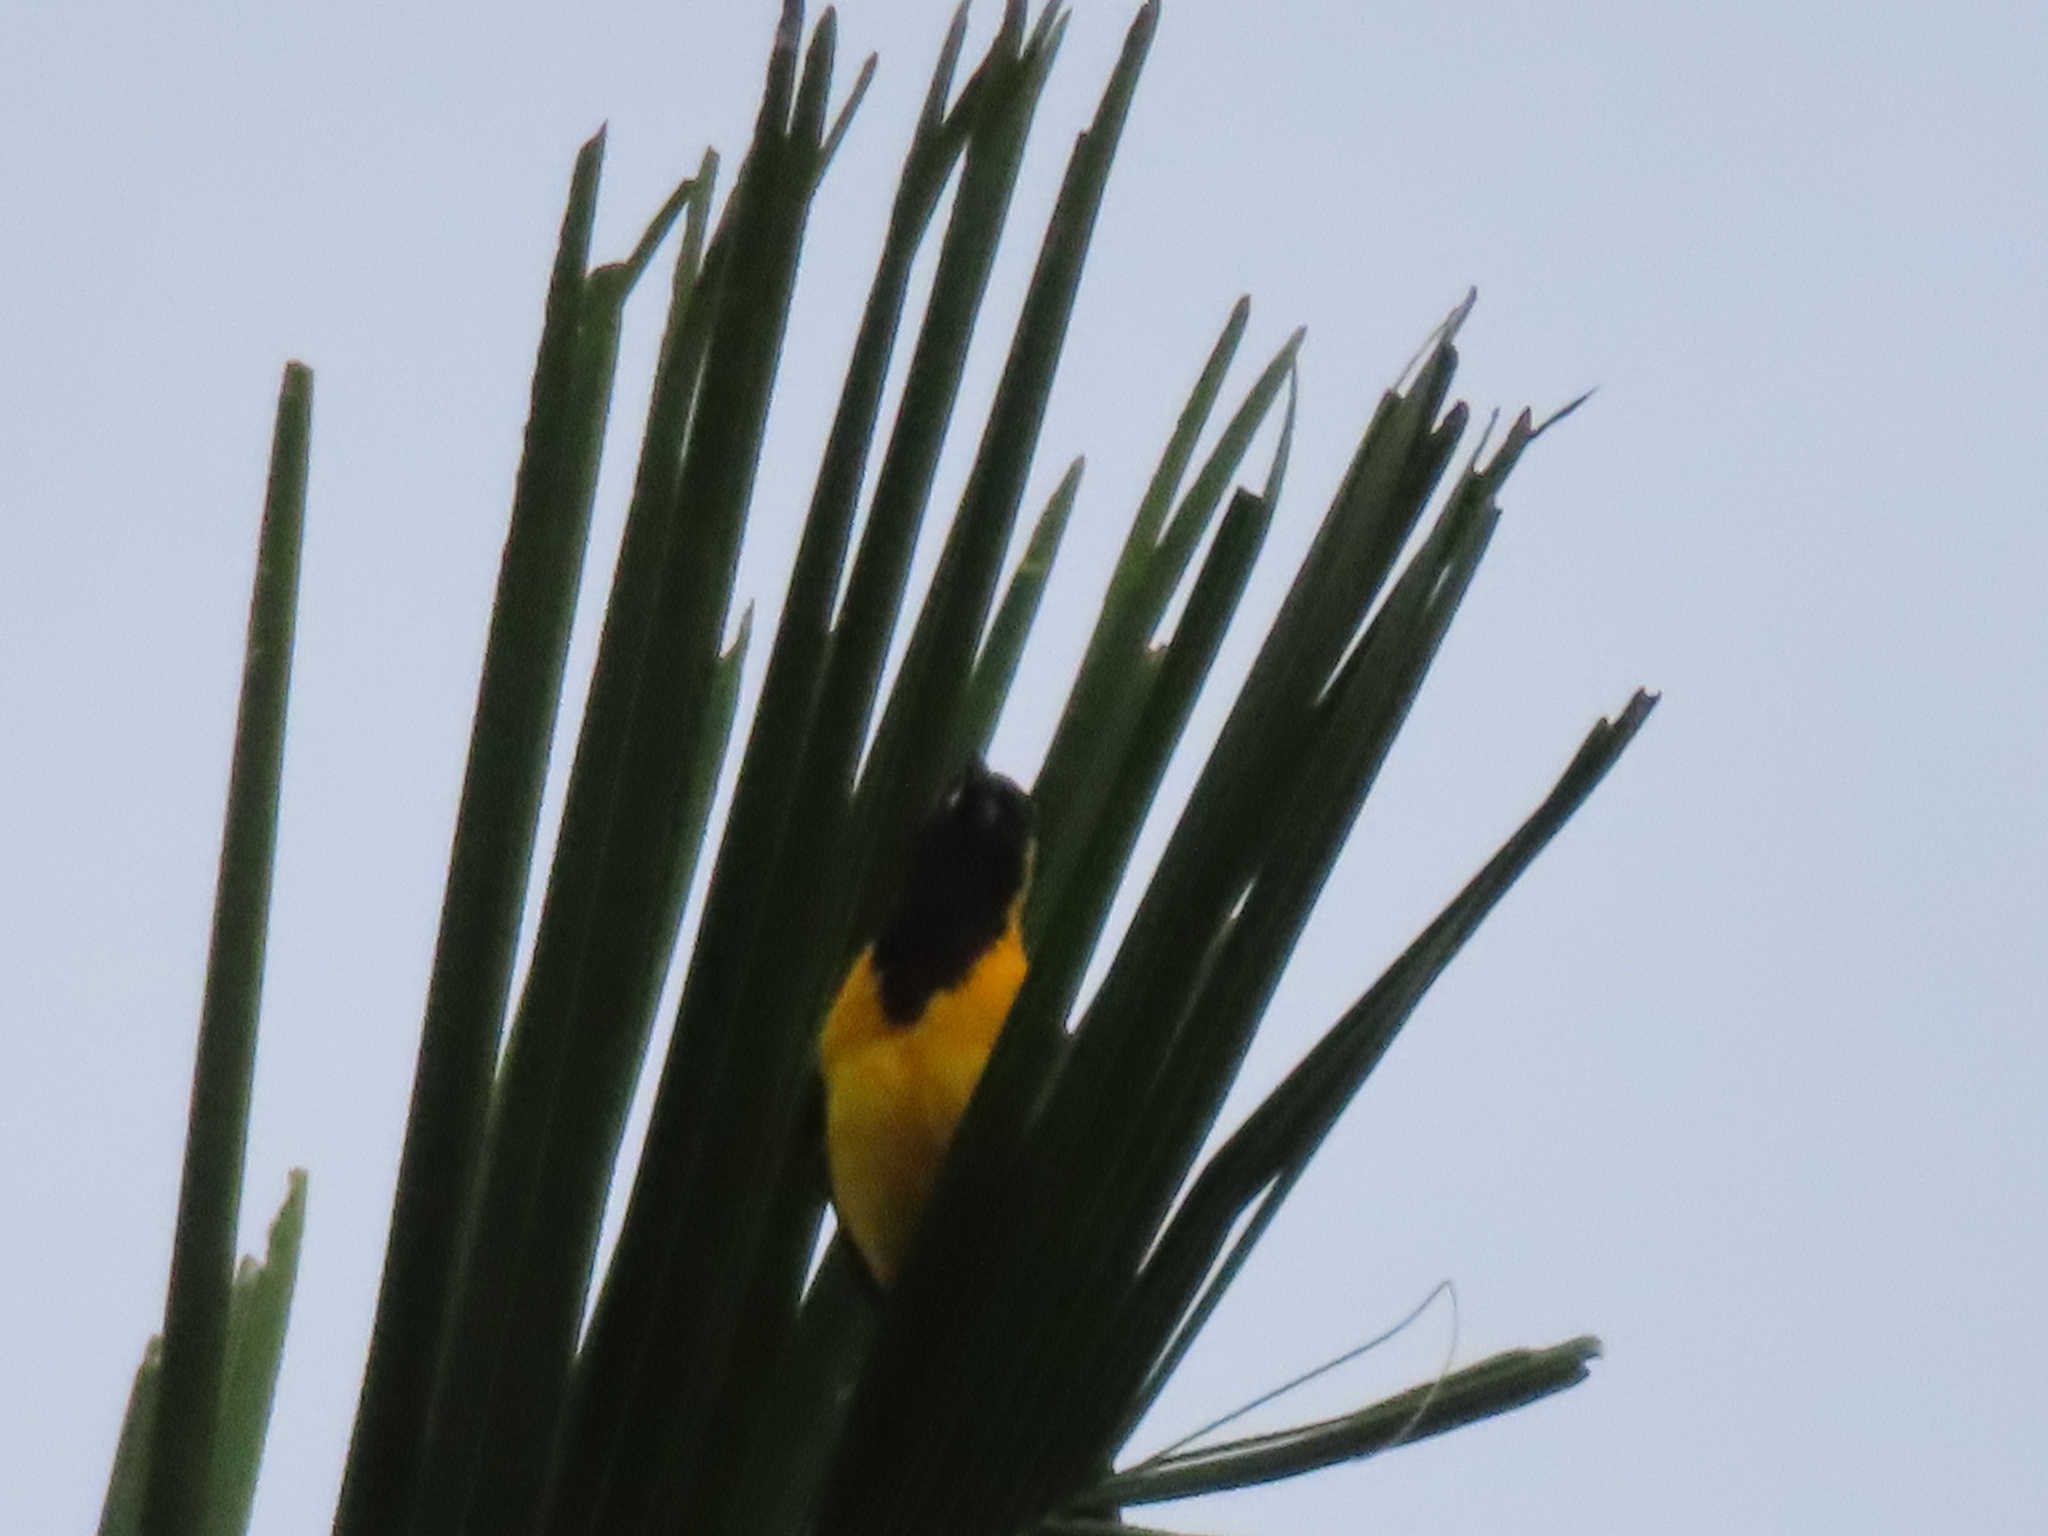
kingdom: Animalia
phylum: Chordata
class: Aves
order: Passeriformes
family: Icteridae
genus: Icterus
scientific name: Icterus chrysater
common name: Yellow-backed oriole
